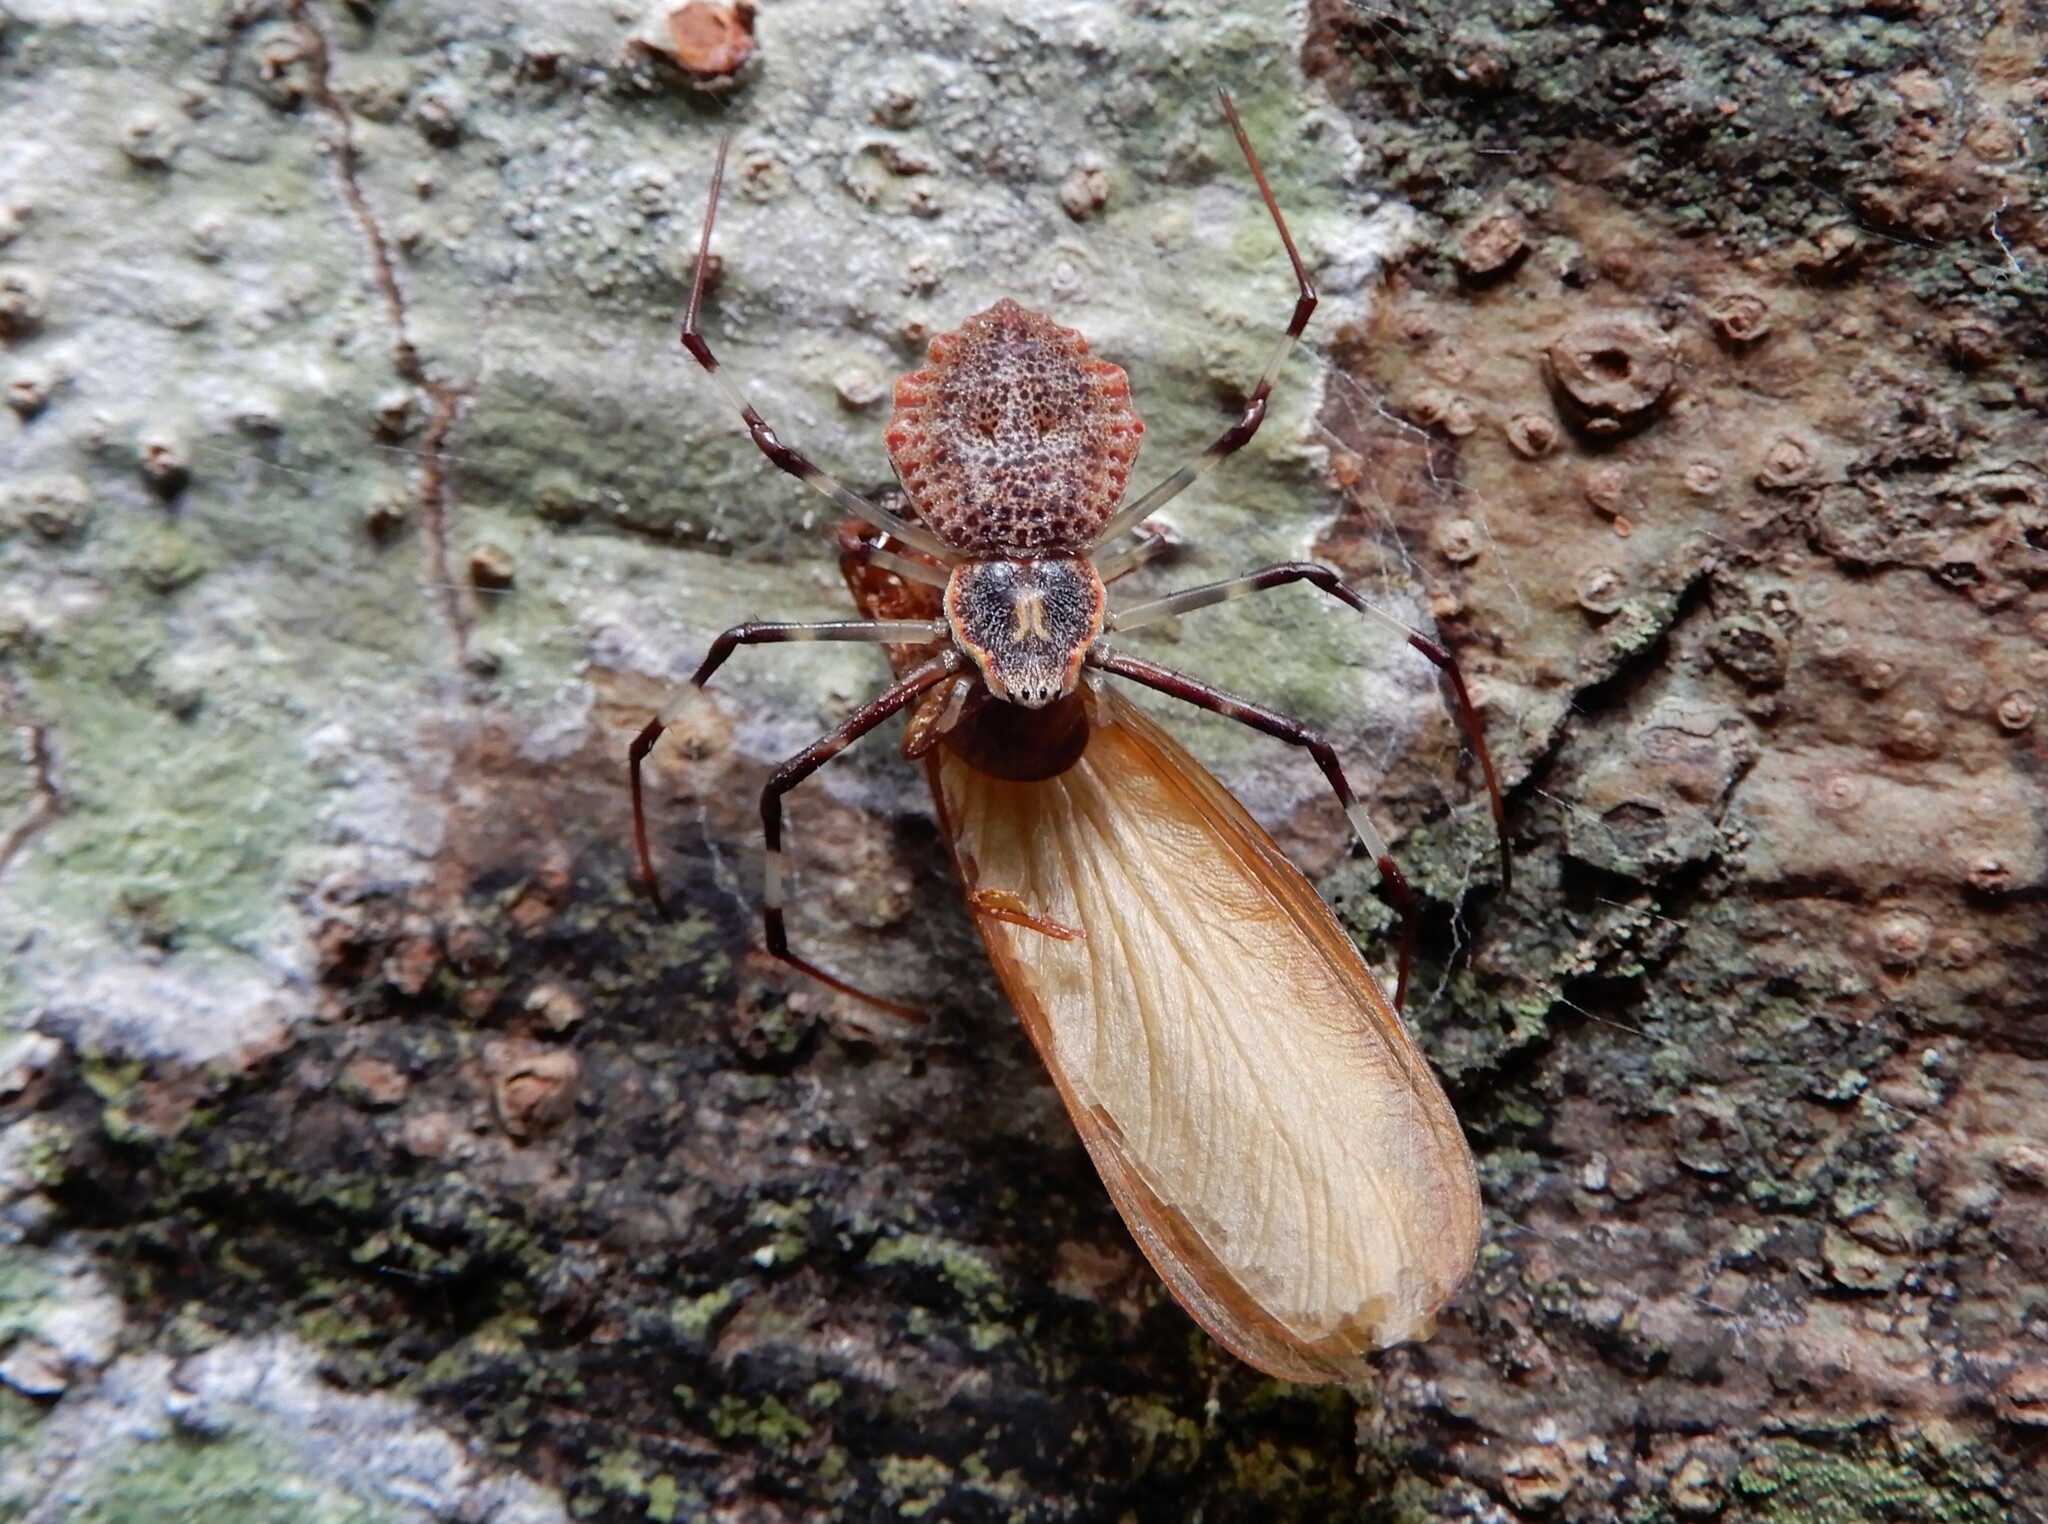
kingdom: Animalia
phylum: Arthropoda
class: Arachnida
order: Araneae
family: Araneidae
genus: Herennia
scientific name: Herennia multipuncta
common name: Spotted coin spider
